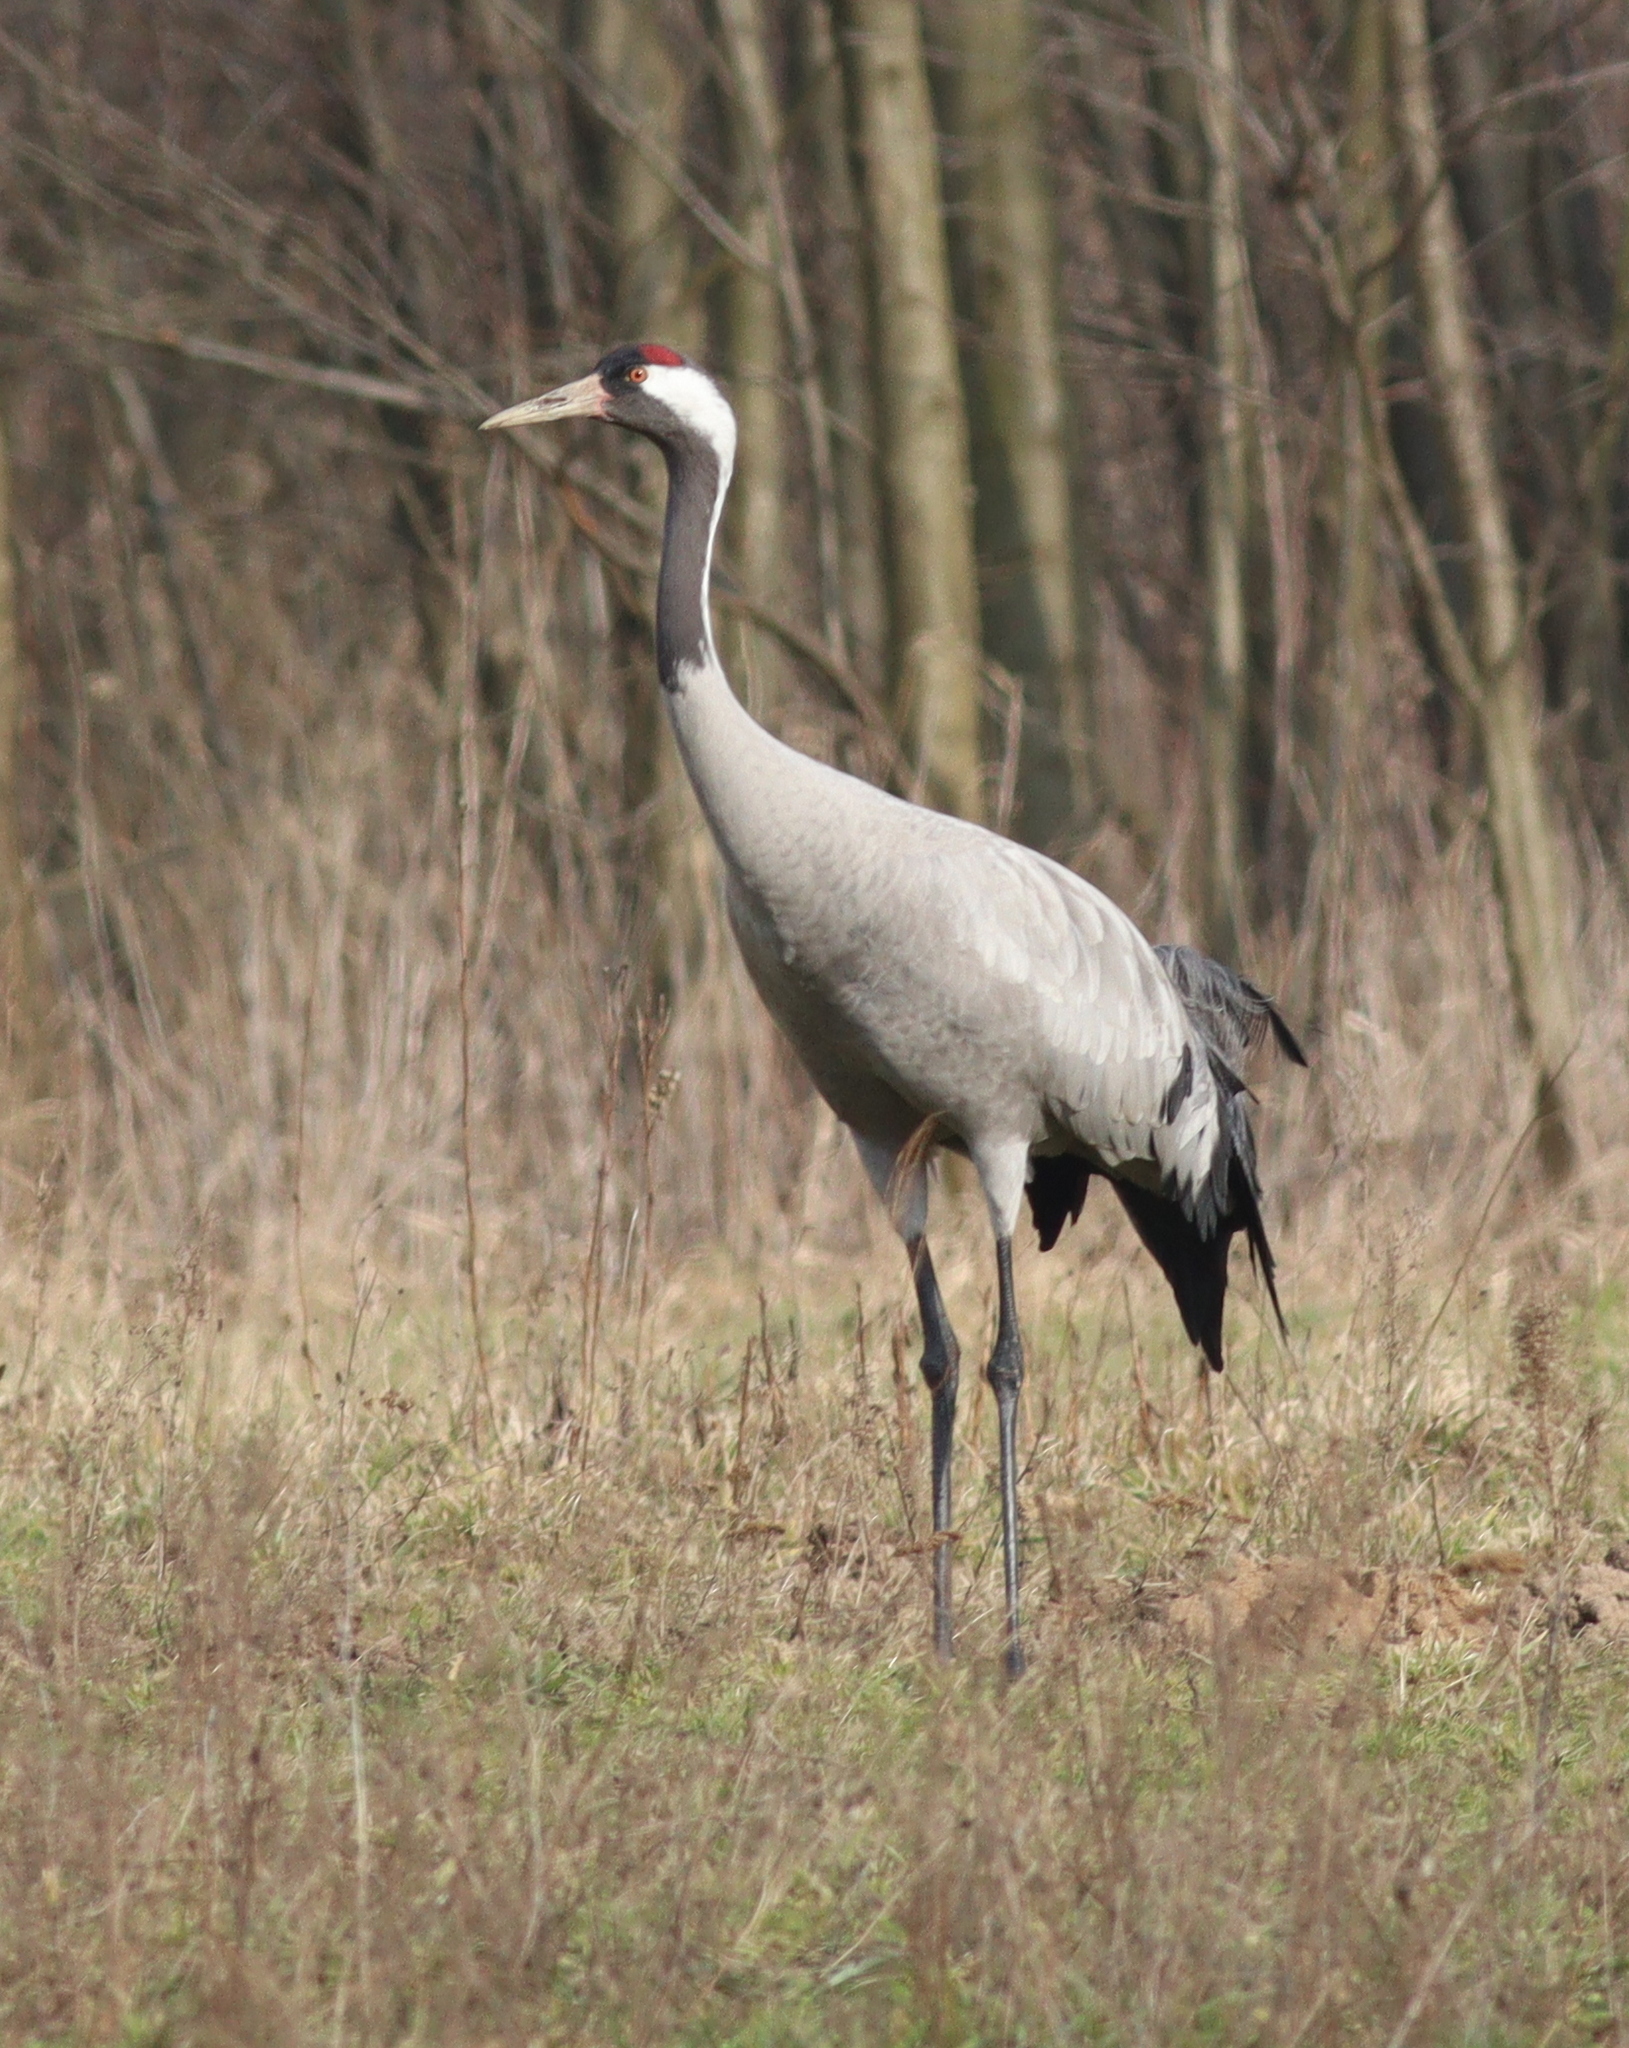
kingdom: Animalia
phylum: Chordata
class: Aves
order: Gruiformes
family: Gruidae
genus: Grus
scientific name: Grus grus
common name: Common crane
